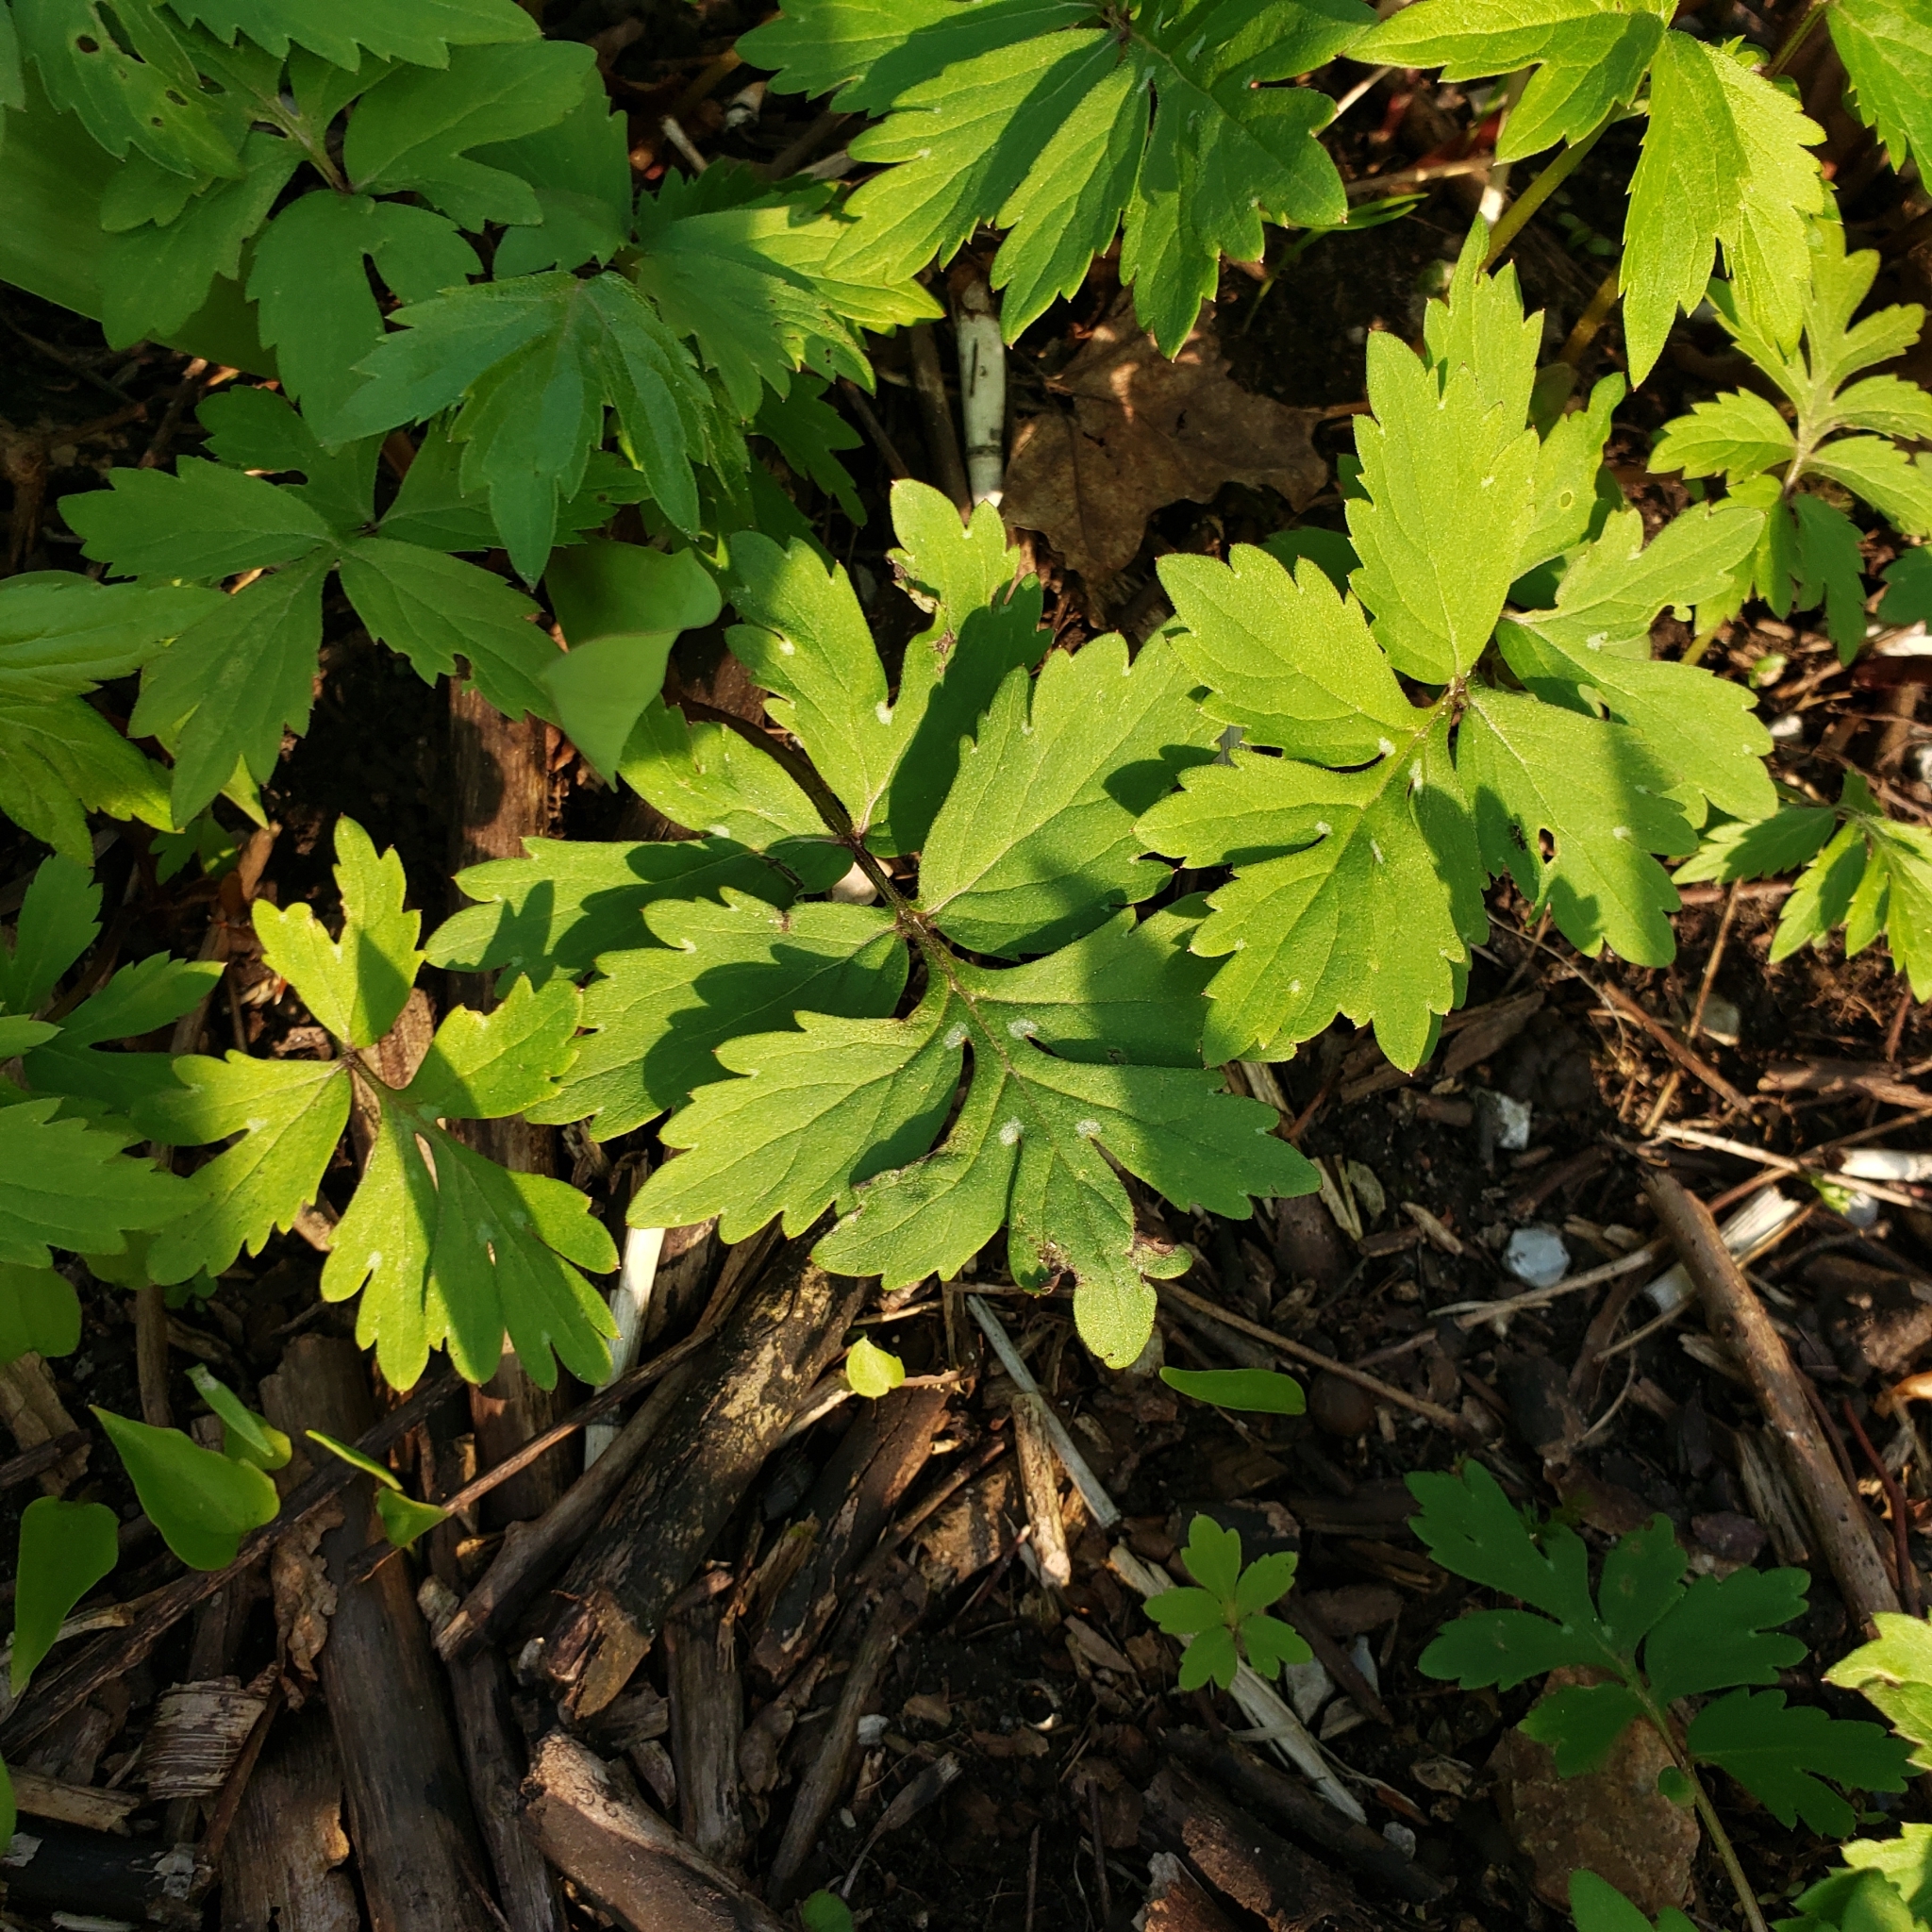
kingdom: Plantae
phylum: Tracheophyta
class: Magnoliopsida
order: Boraginales
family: Hydrophyllaceae
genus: Hydrophyllum
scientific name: Hydrophyllum virginianum
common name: Virginia waterleaf
